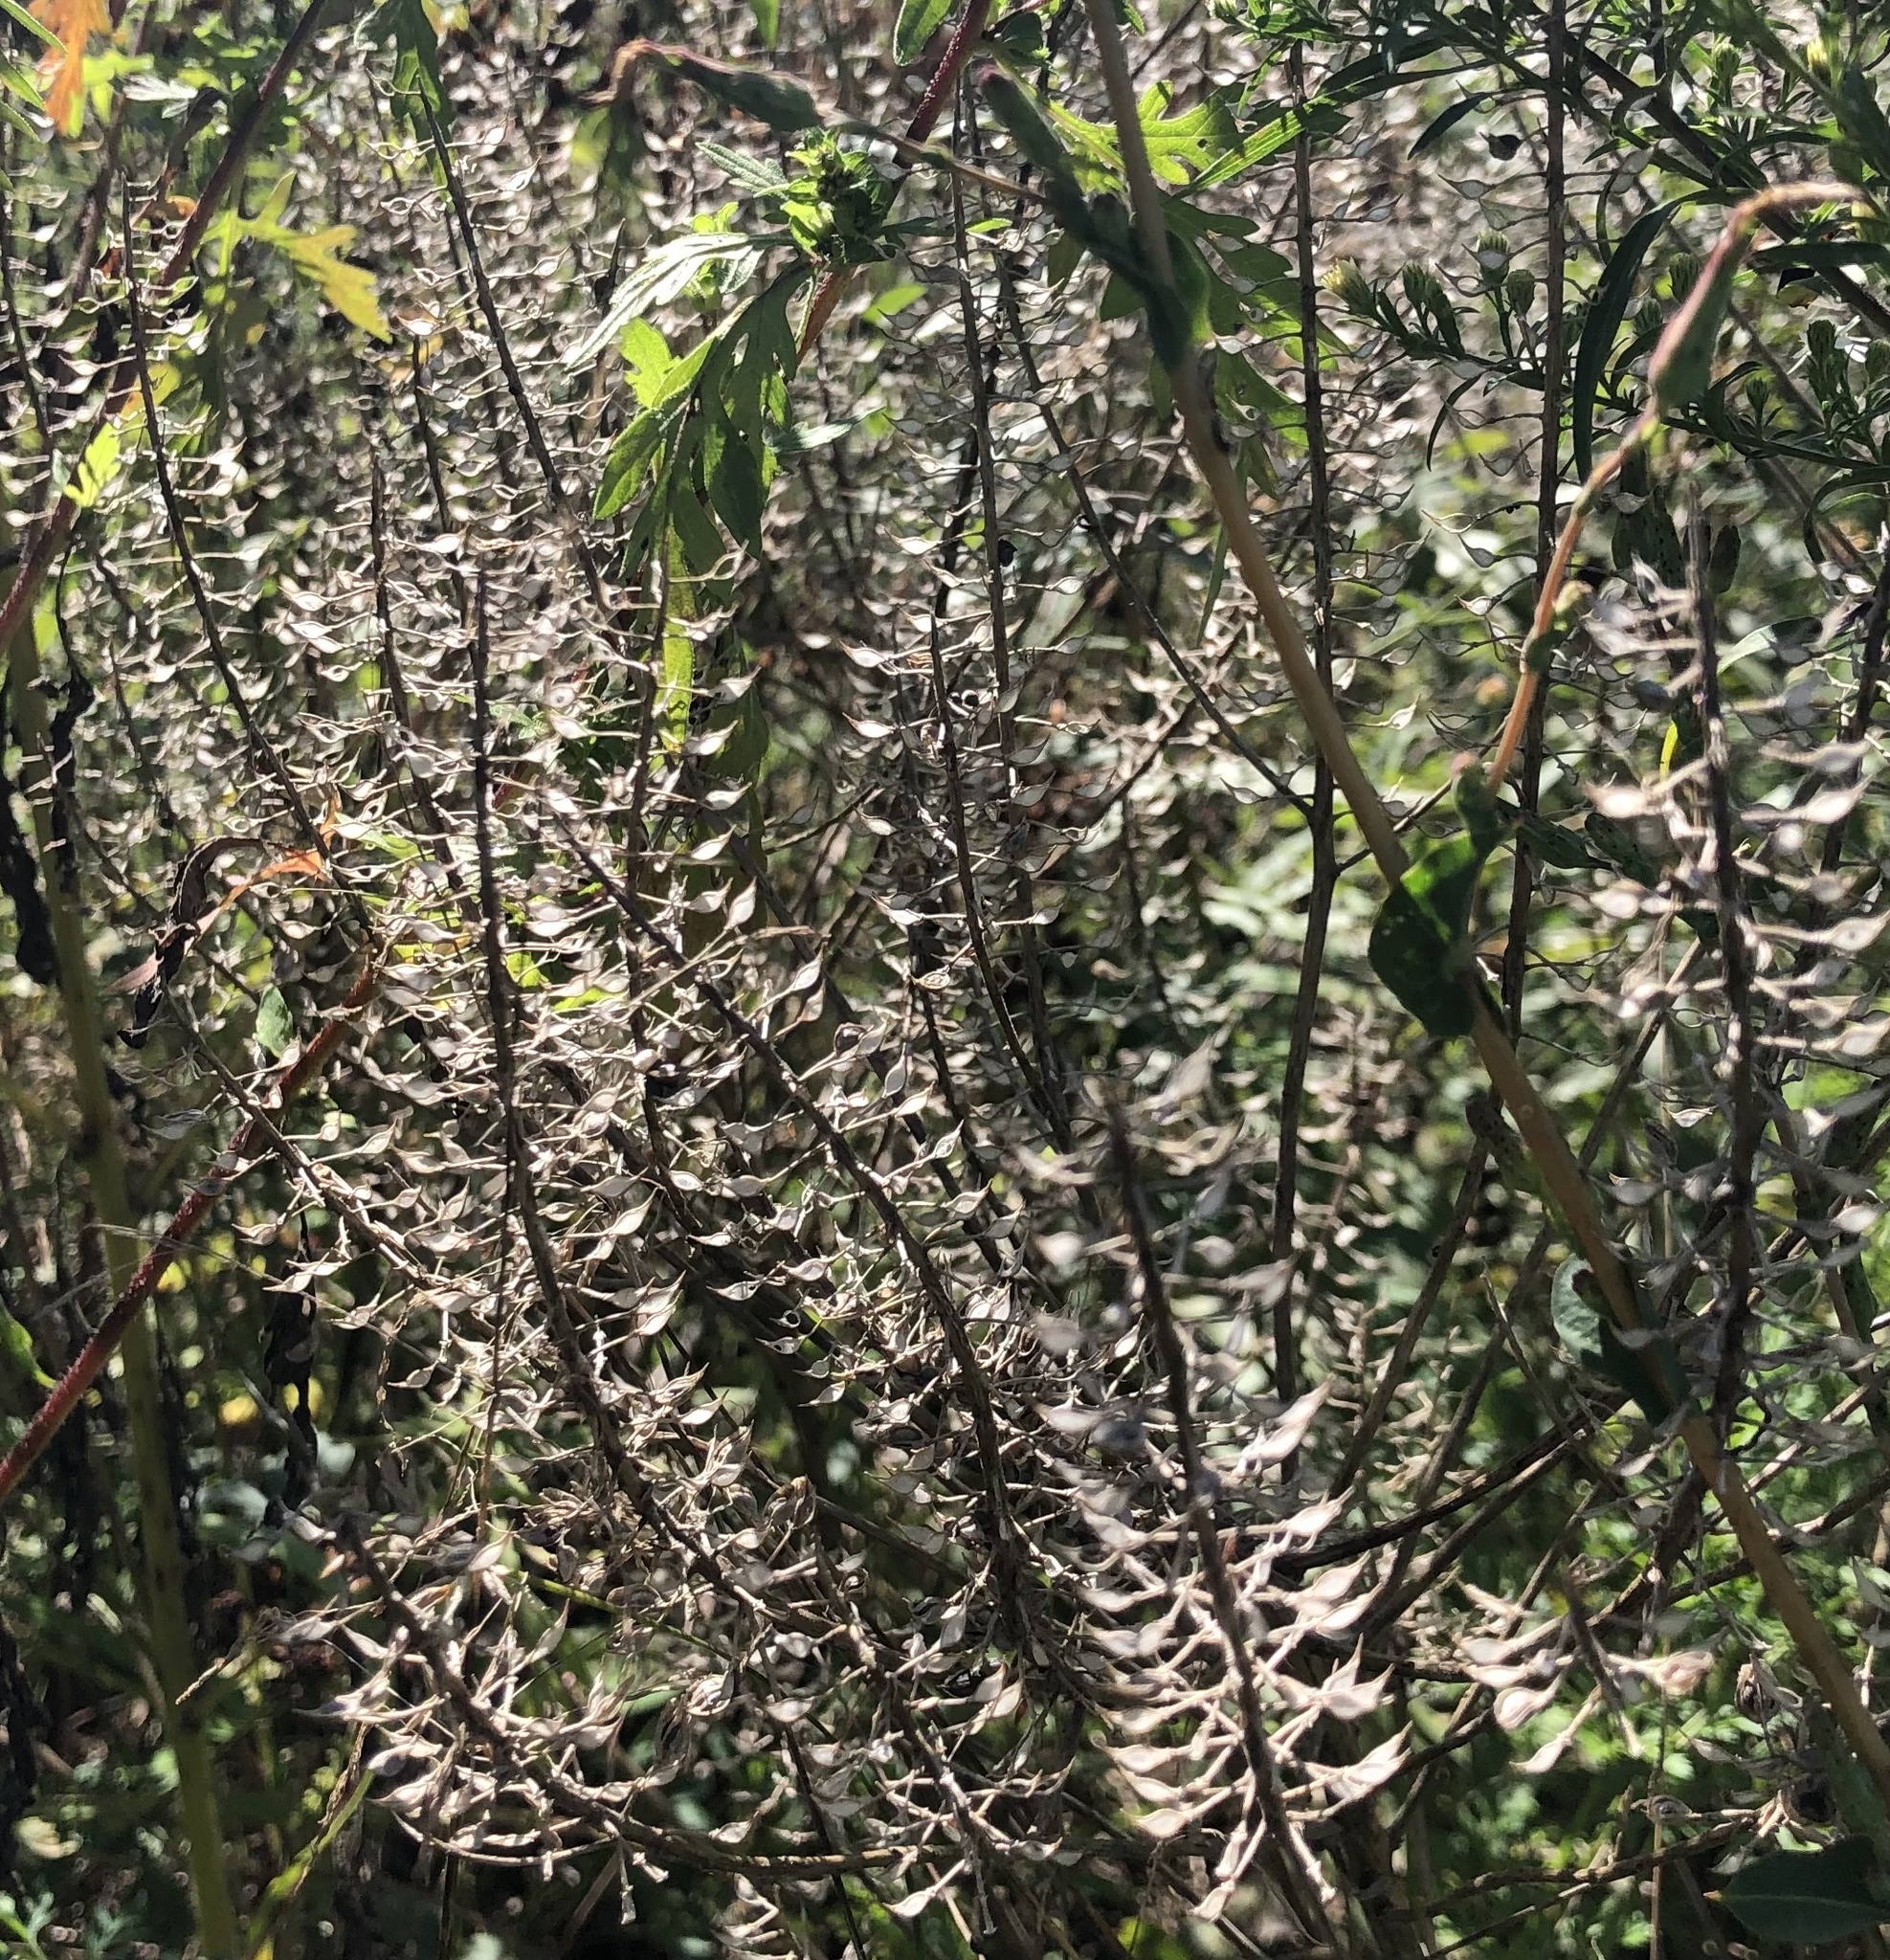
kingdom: Plantae
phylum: Tracheophyta
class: Magnoliopsida
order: Brassicales
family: Brassicaceae
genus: Lepidium
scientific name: Lepidium campestre
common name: Field pepperwort
